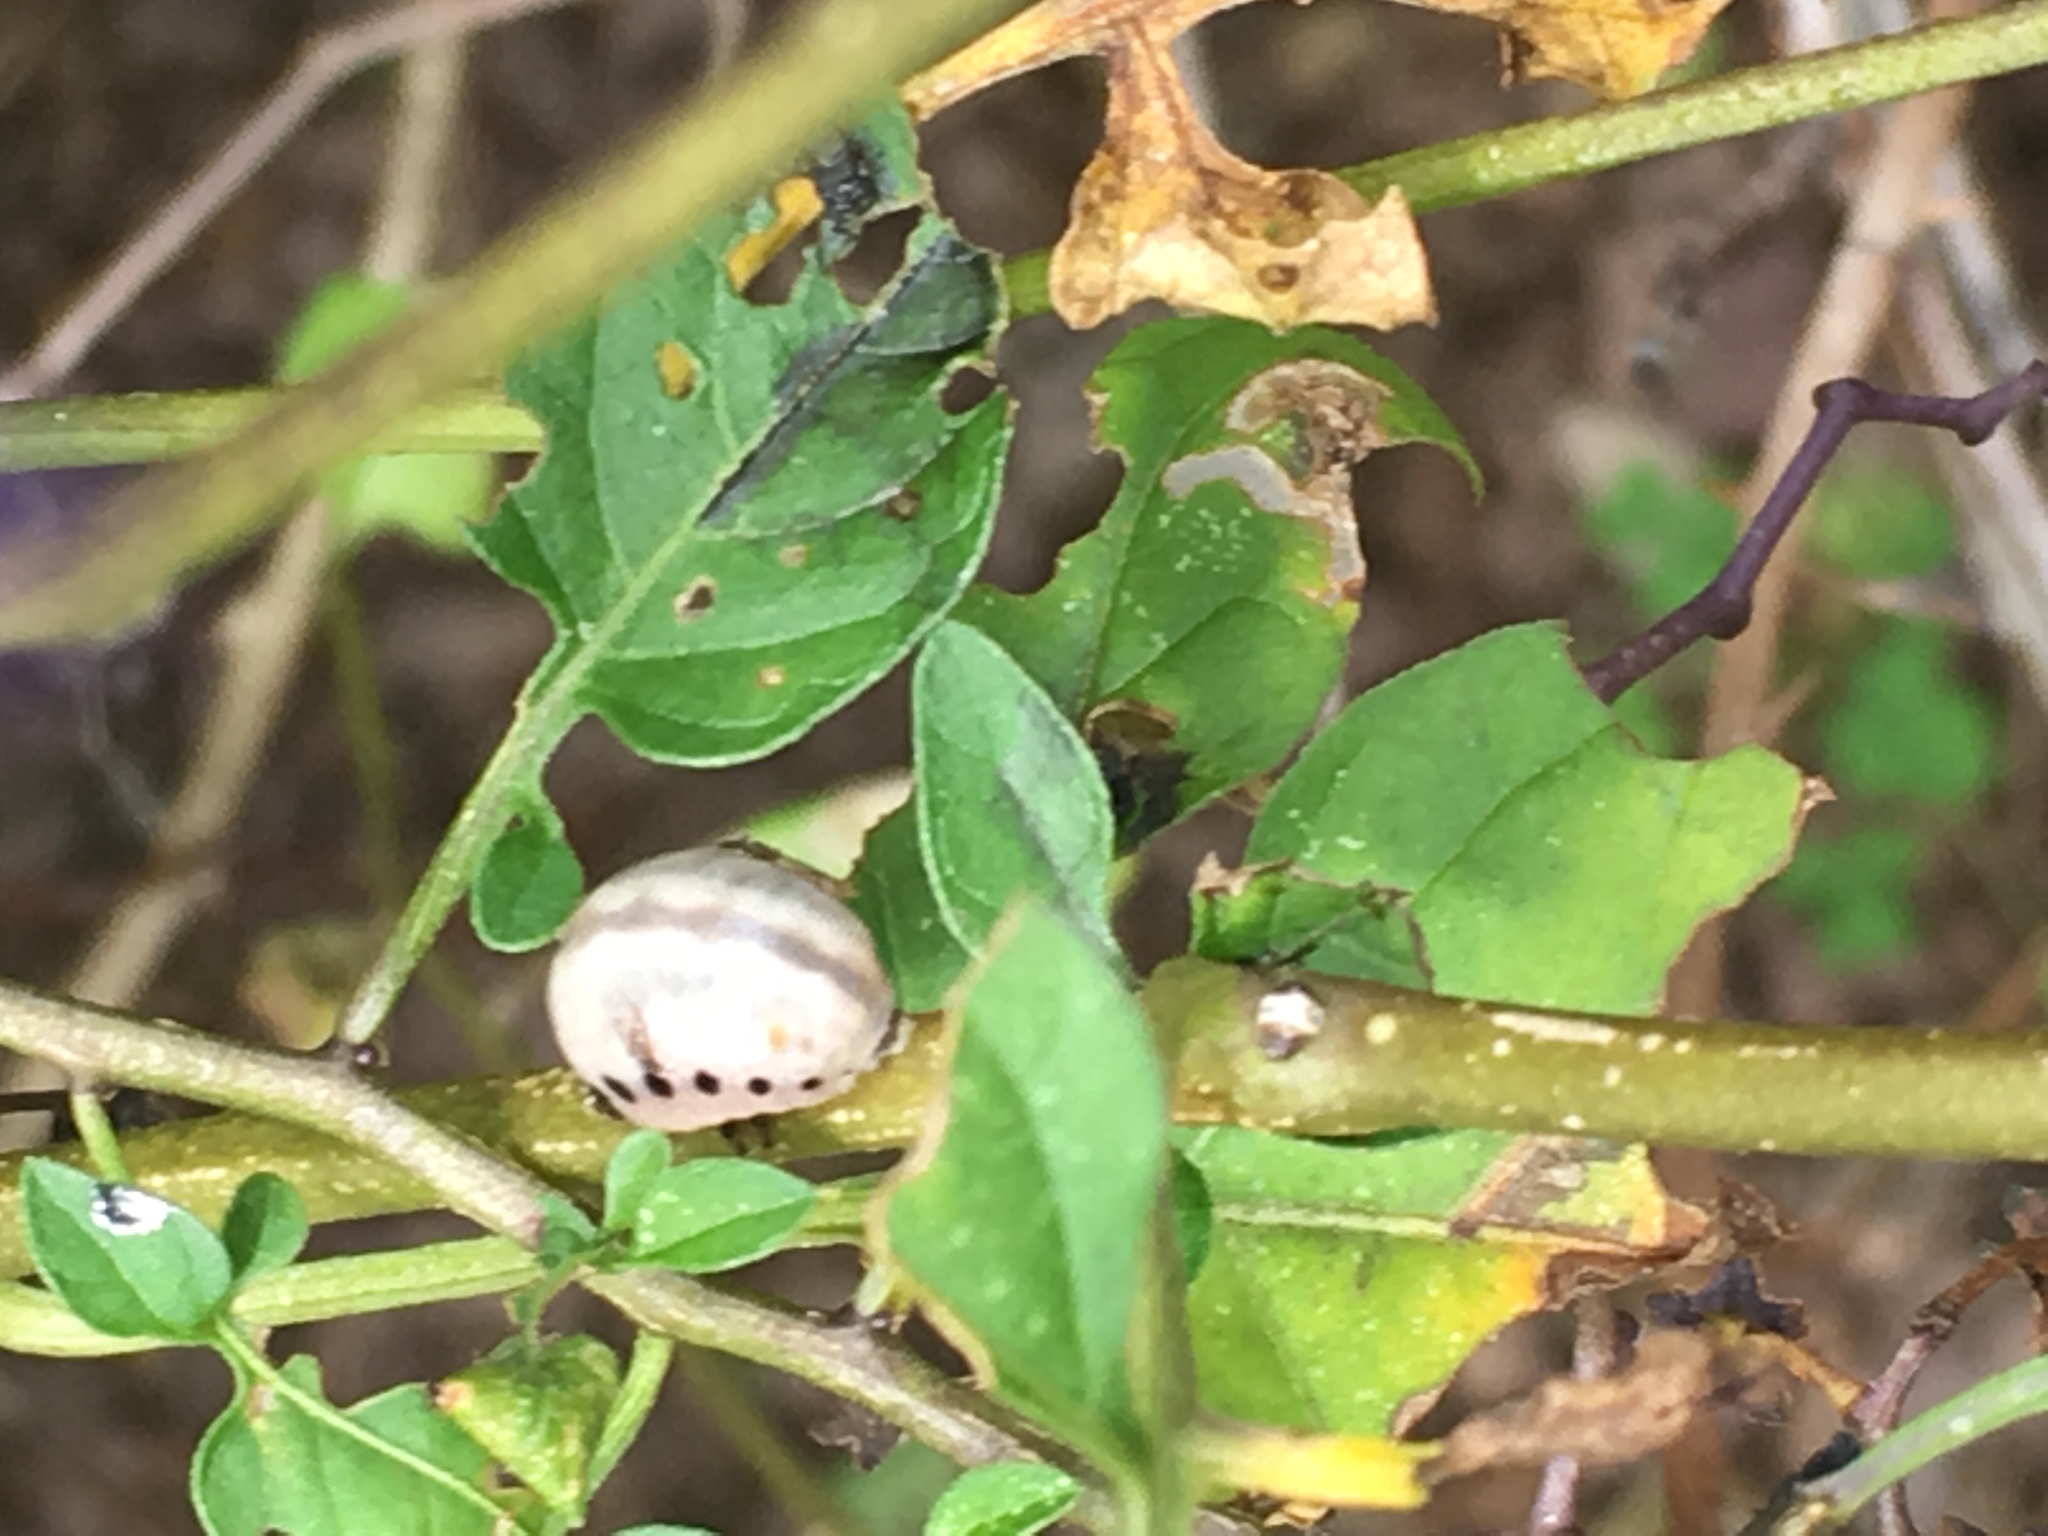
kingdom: Animalia
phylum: Arthropoda
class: Insecta
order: Coleoptera
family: Chrysomelidae
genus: Leptinotarsa
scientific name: Leptinotarsa juncta
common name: False potato beetle
